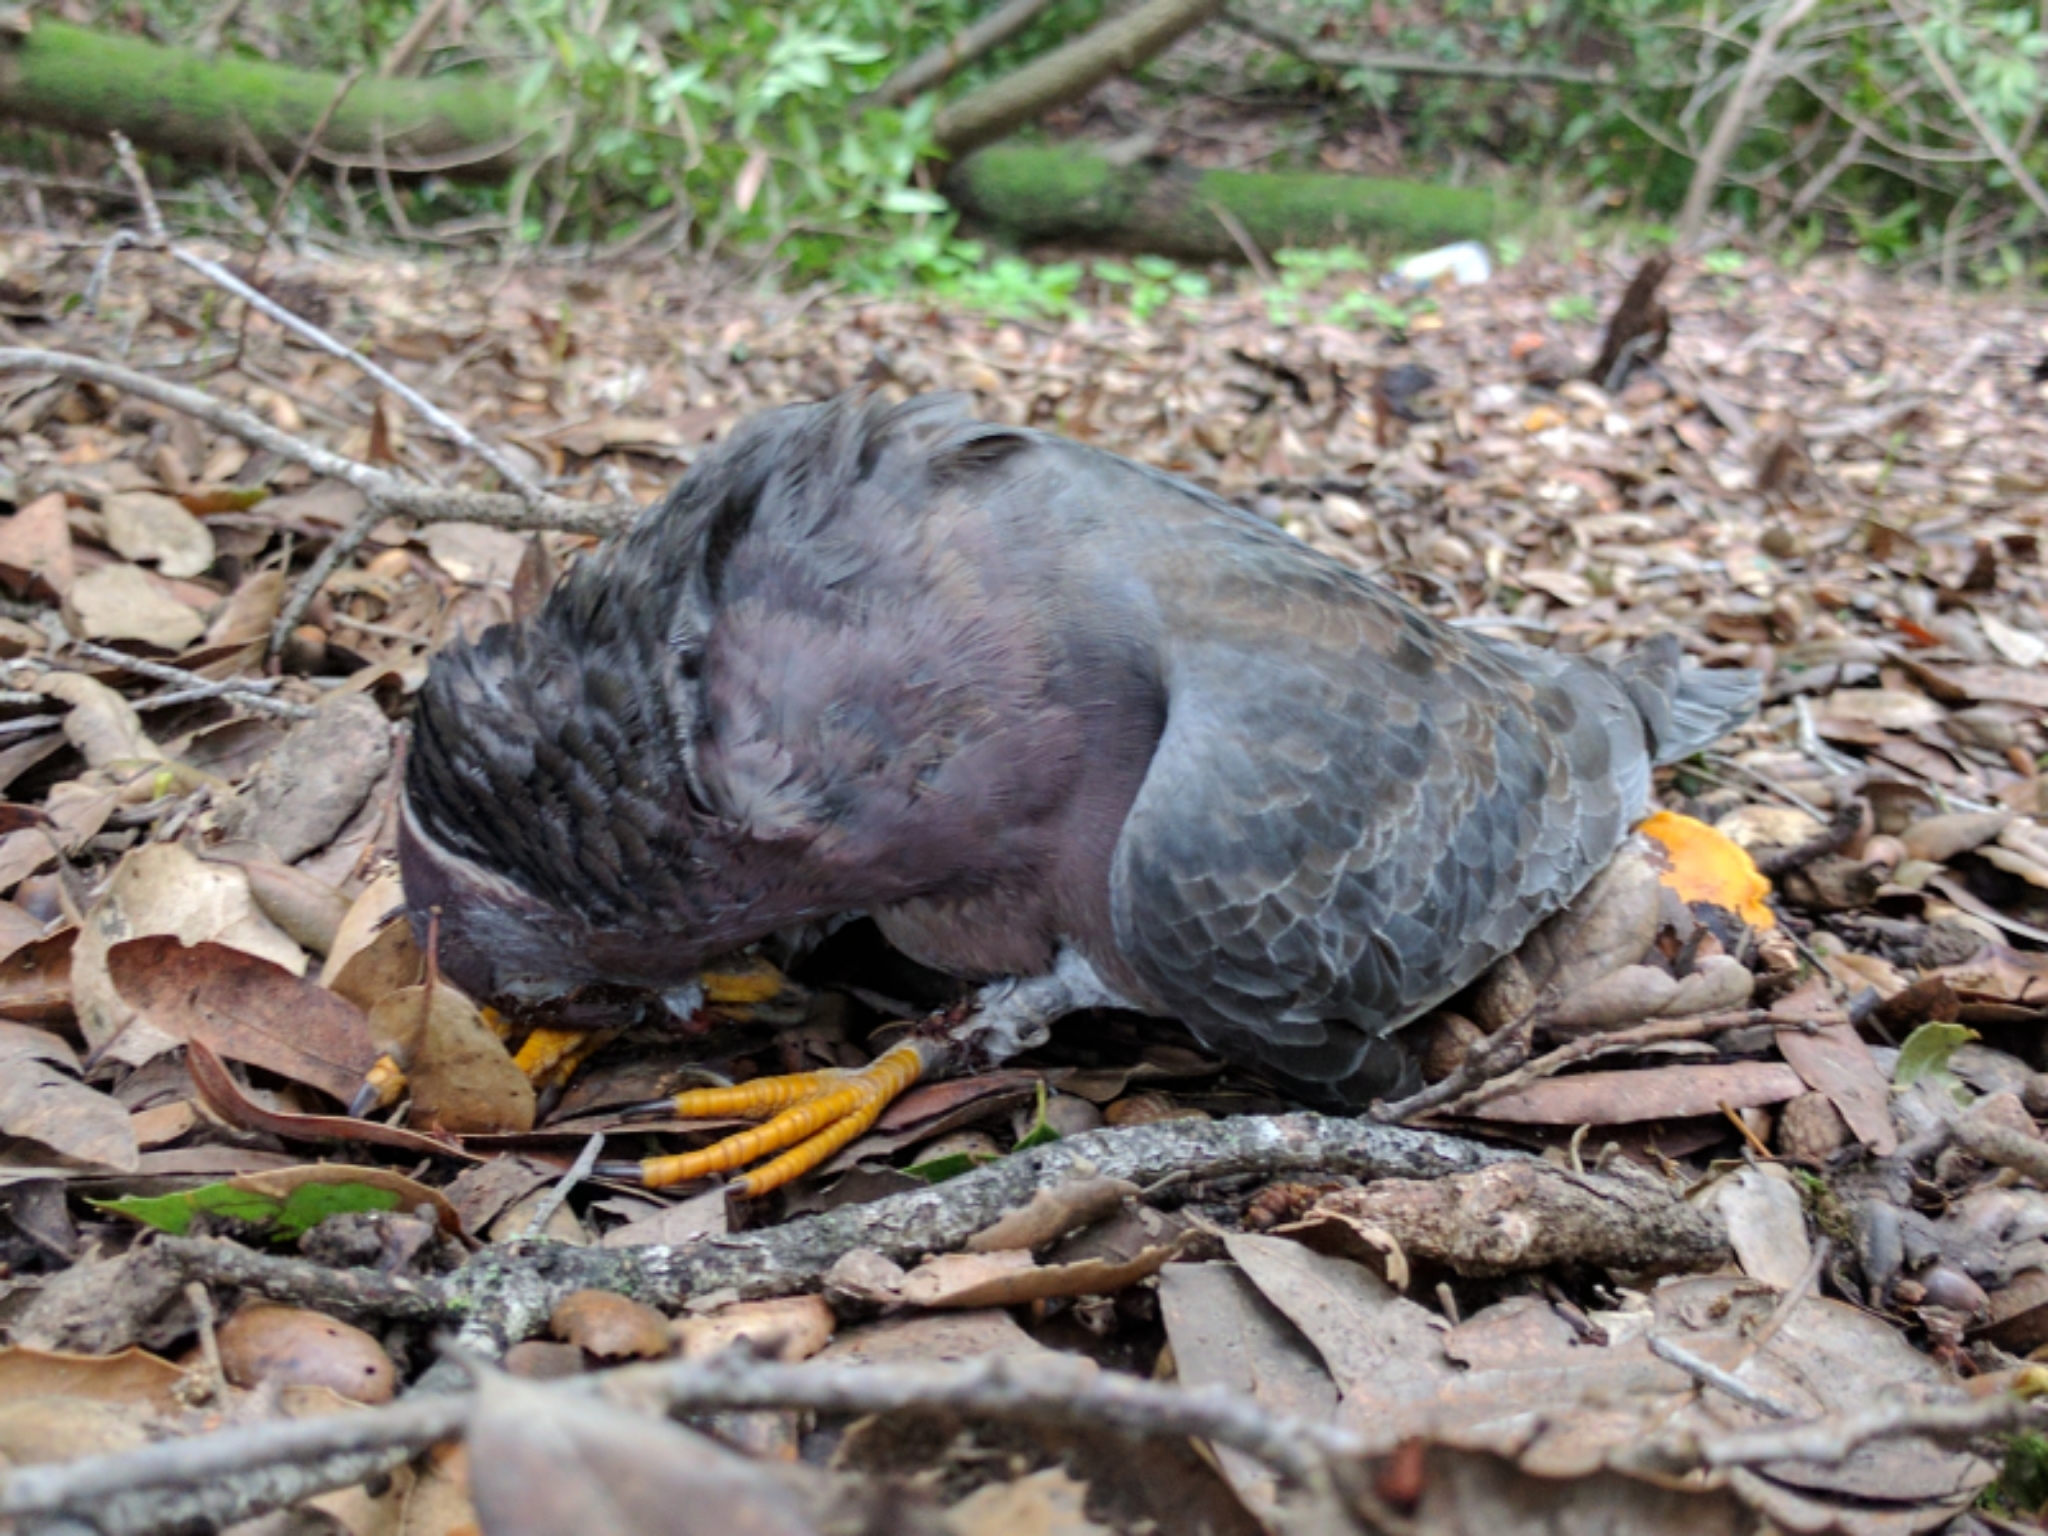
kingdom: Animalia
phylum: Chordata
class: Aves
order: Columbiformes
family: Columbidae
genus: Patagioenas
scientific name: Patagioenas fasciata
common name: Band-tailed pigeon
